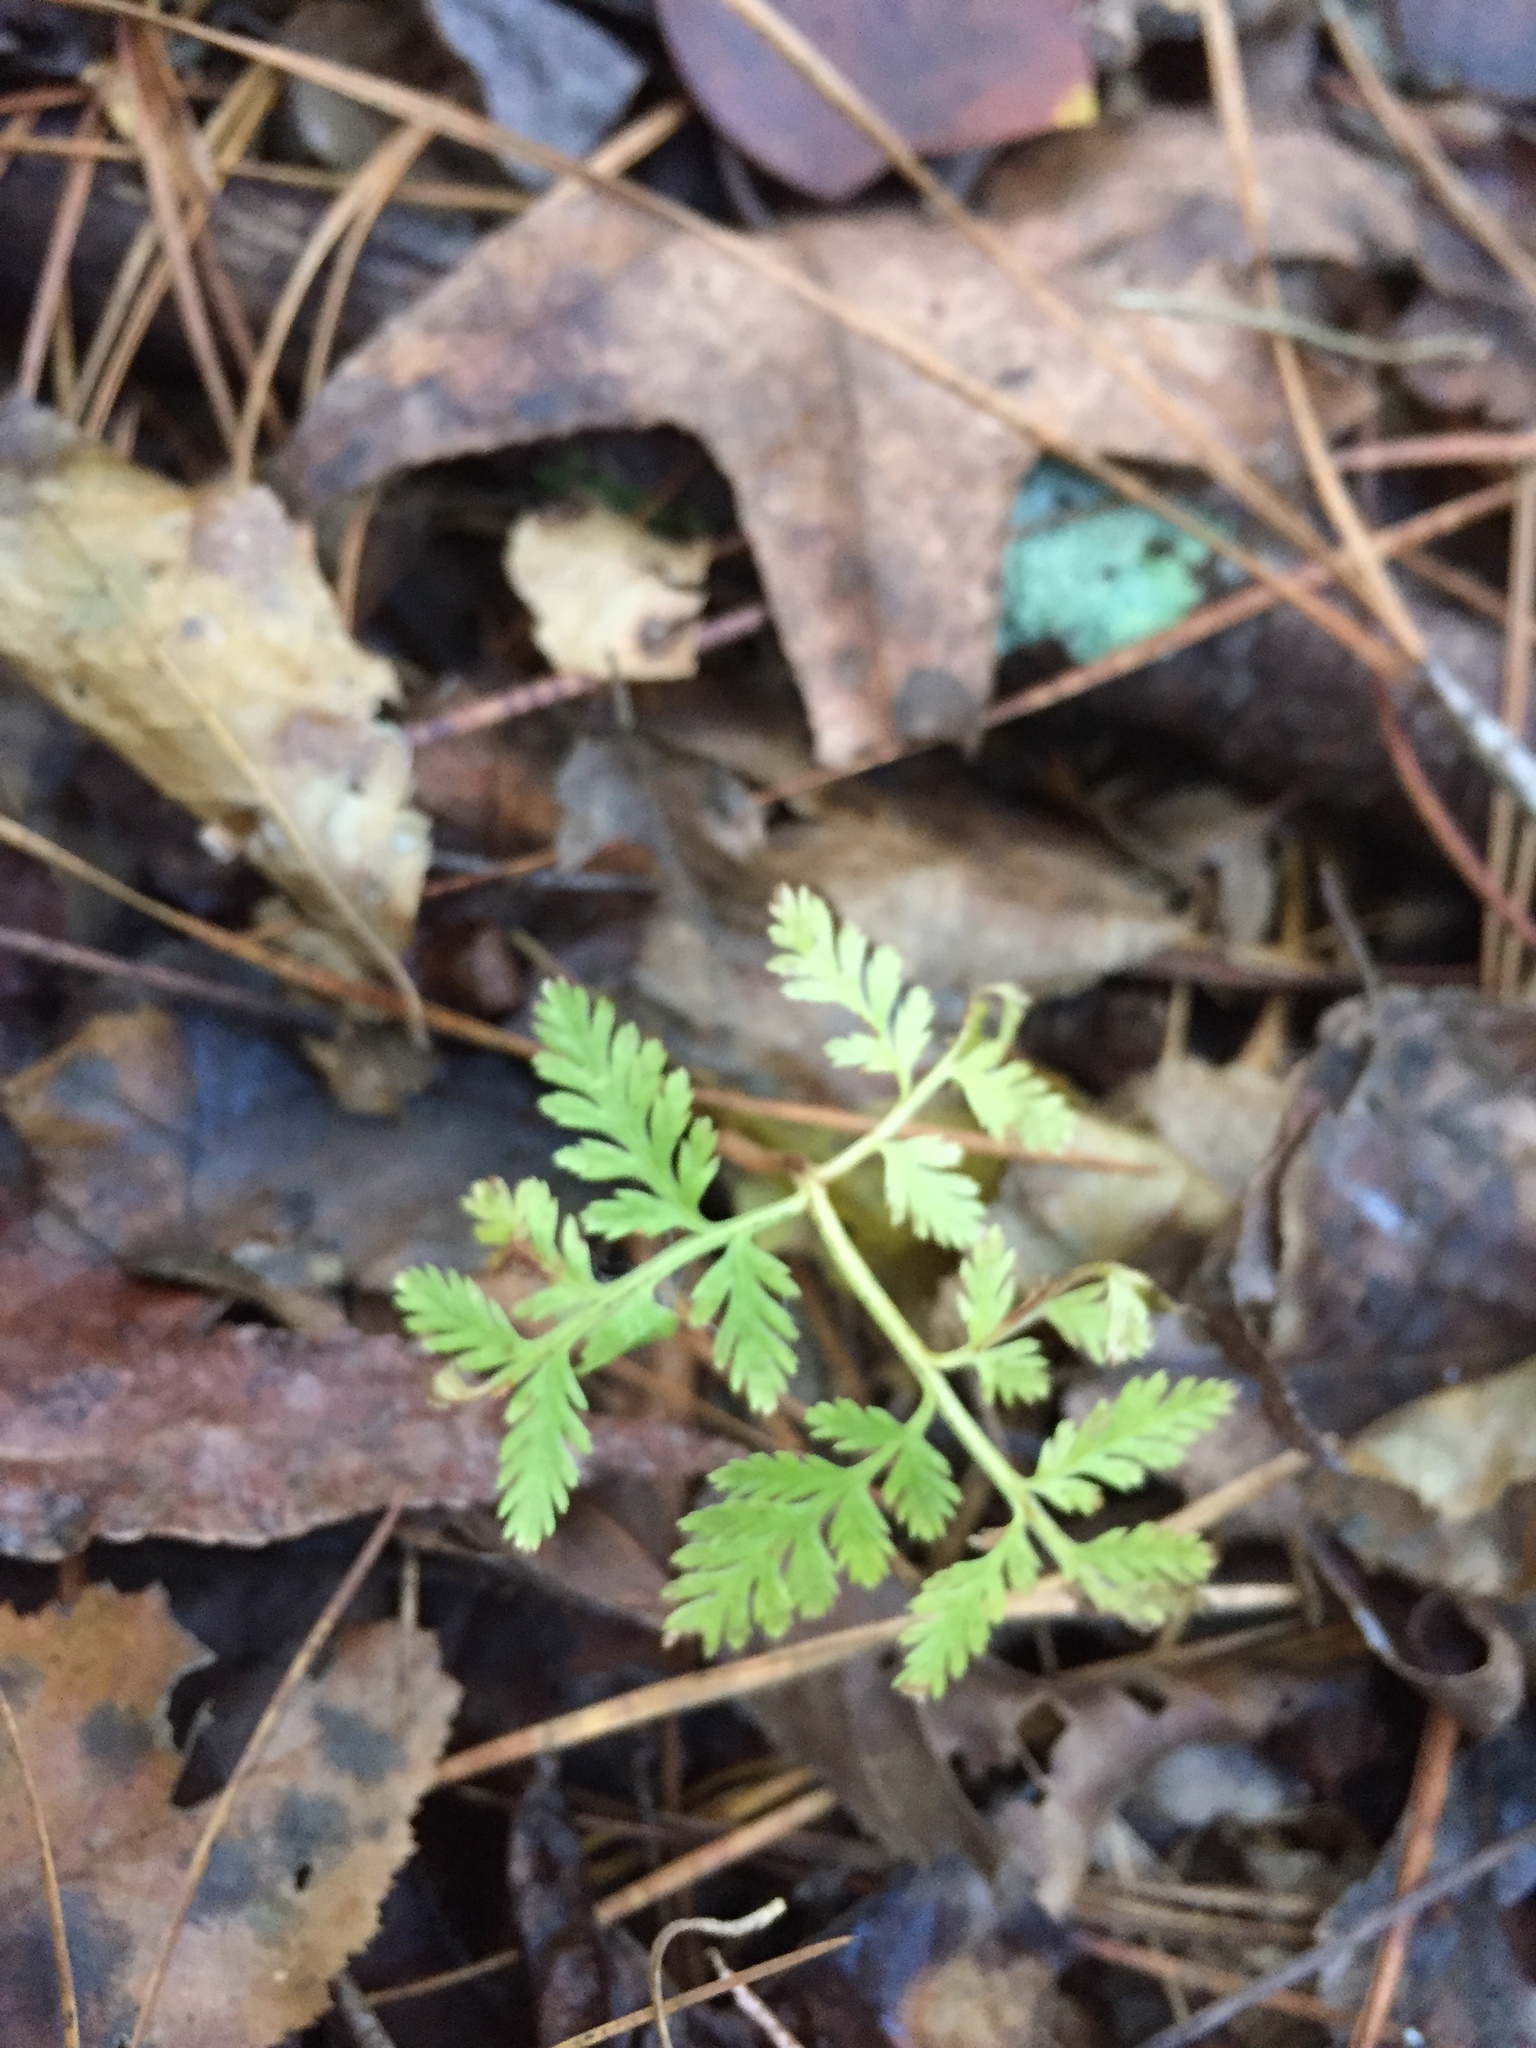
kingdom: Plantae
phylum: Tracheophyta
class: Polypodiopsida
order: Ophioglossales
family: Ophioglossaceae
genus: Botrypus
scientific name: Botrypus virginianus
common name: Common grapefern
